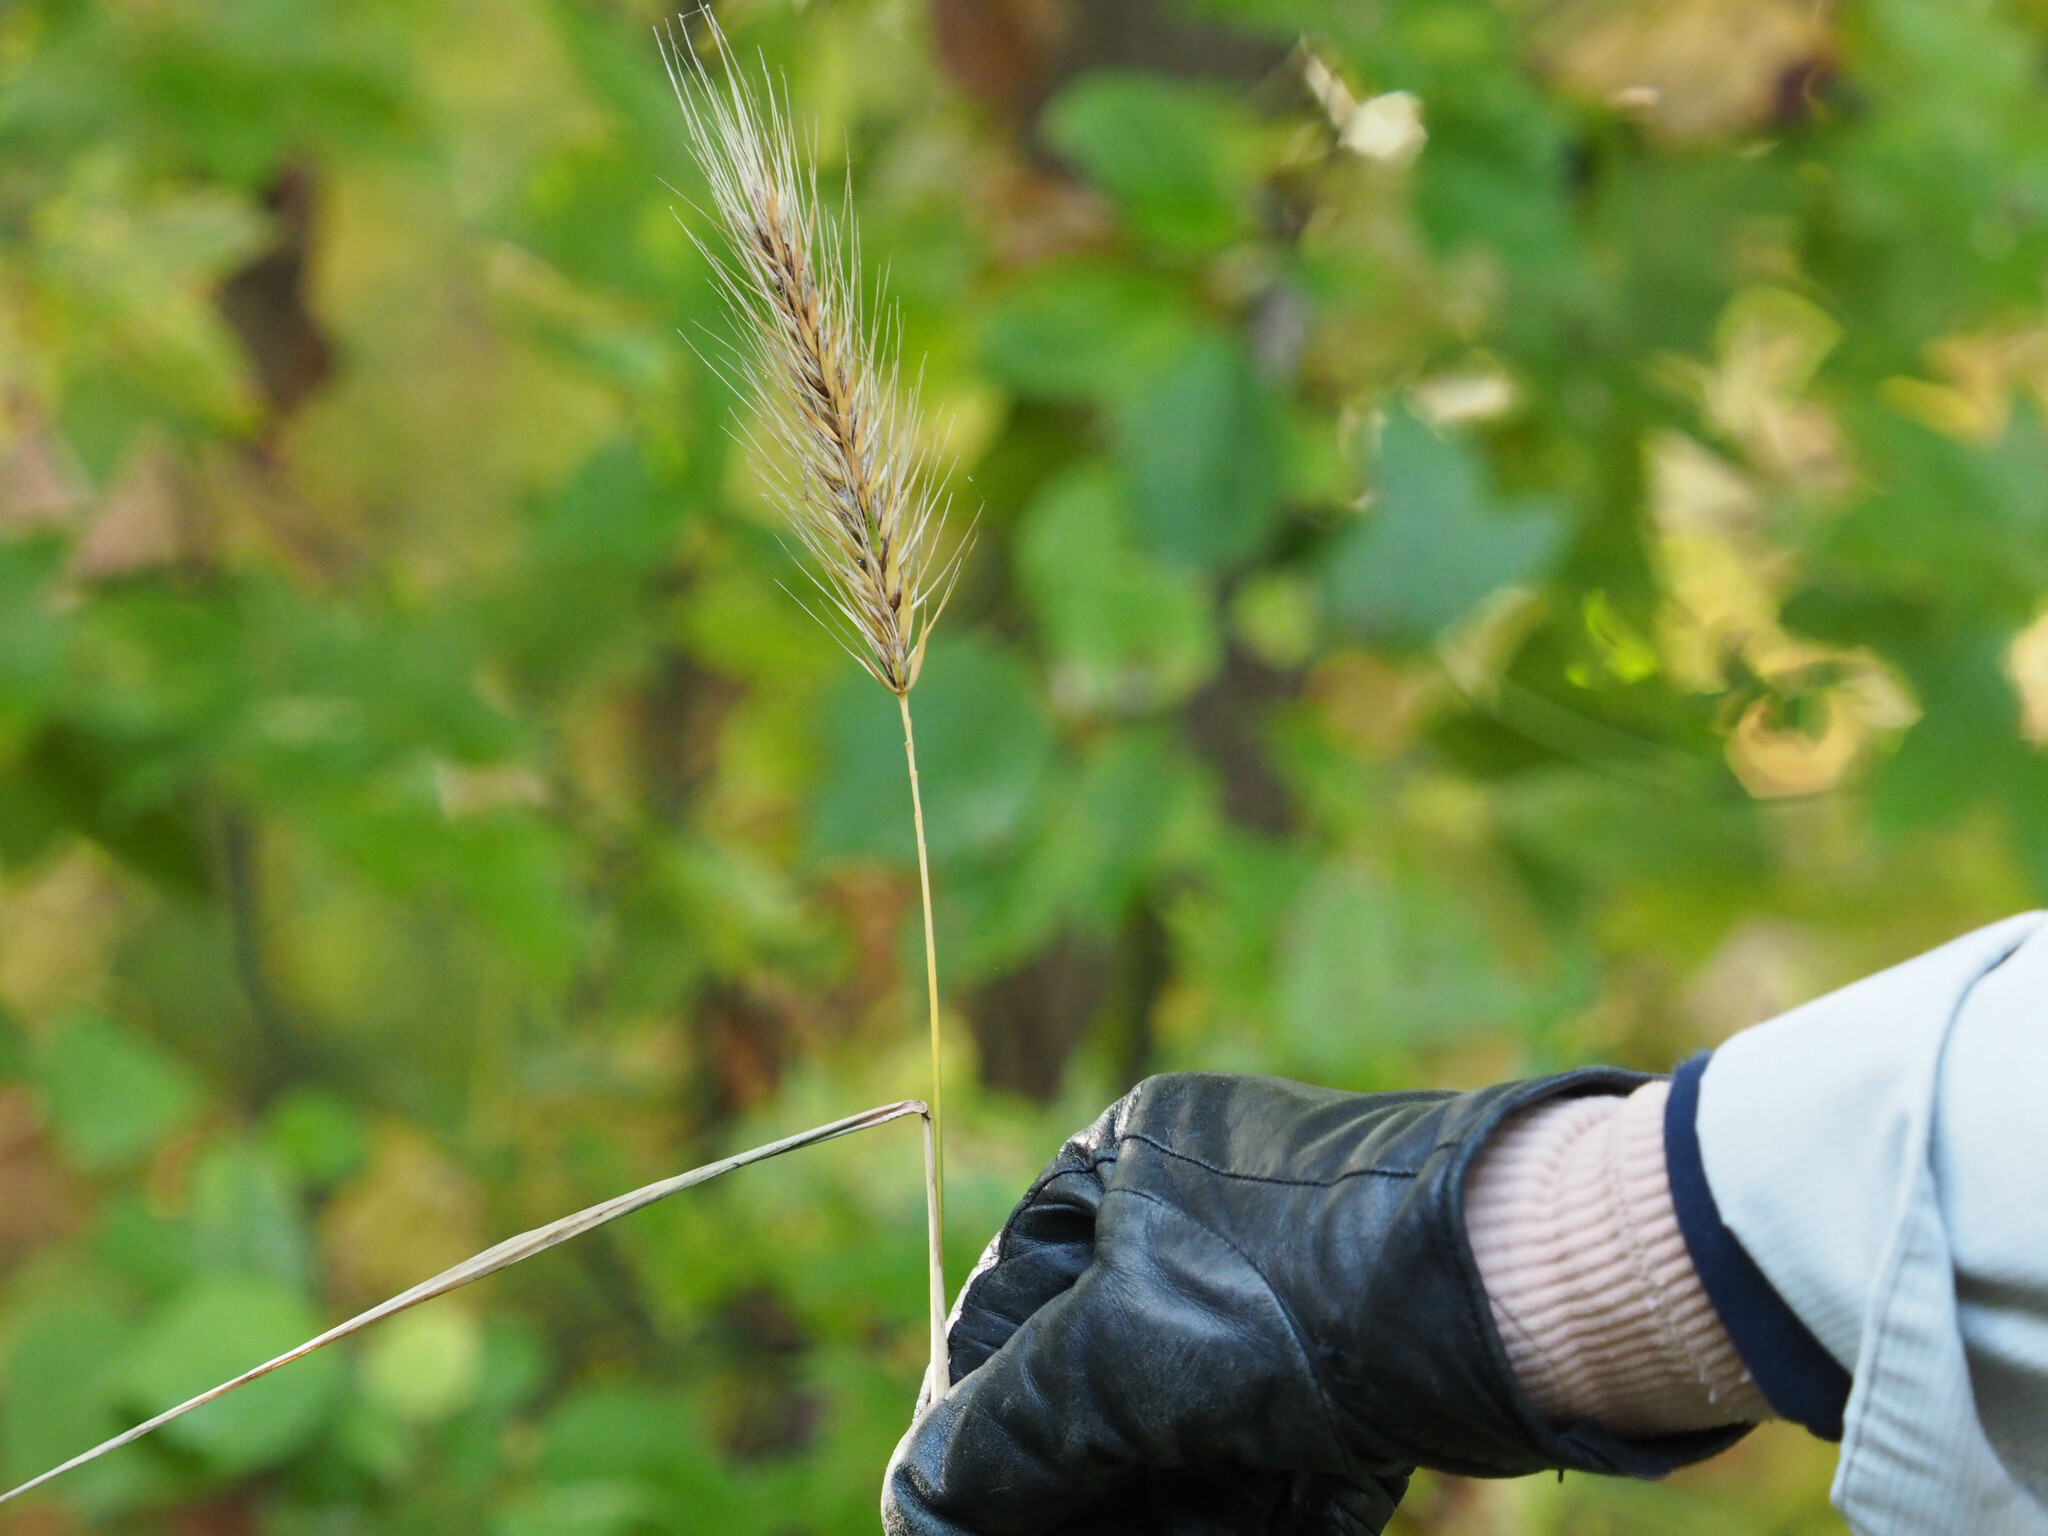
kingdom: Plantae
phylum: Tracheophyta
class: Liliopsida
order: Poales
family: Poaceae
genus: Elymus
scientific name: Elymus virginicus
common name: Common eastern wildrye
